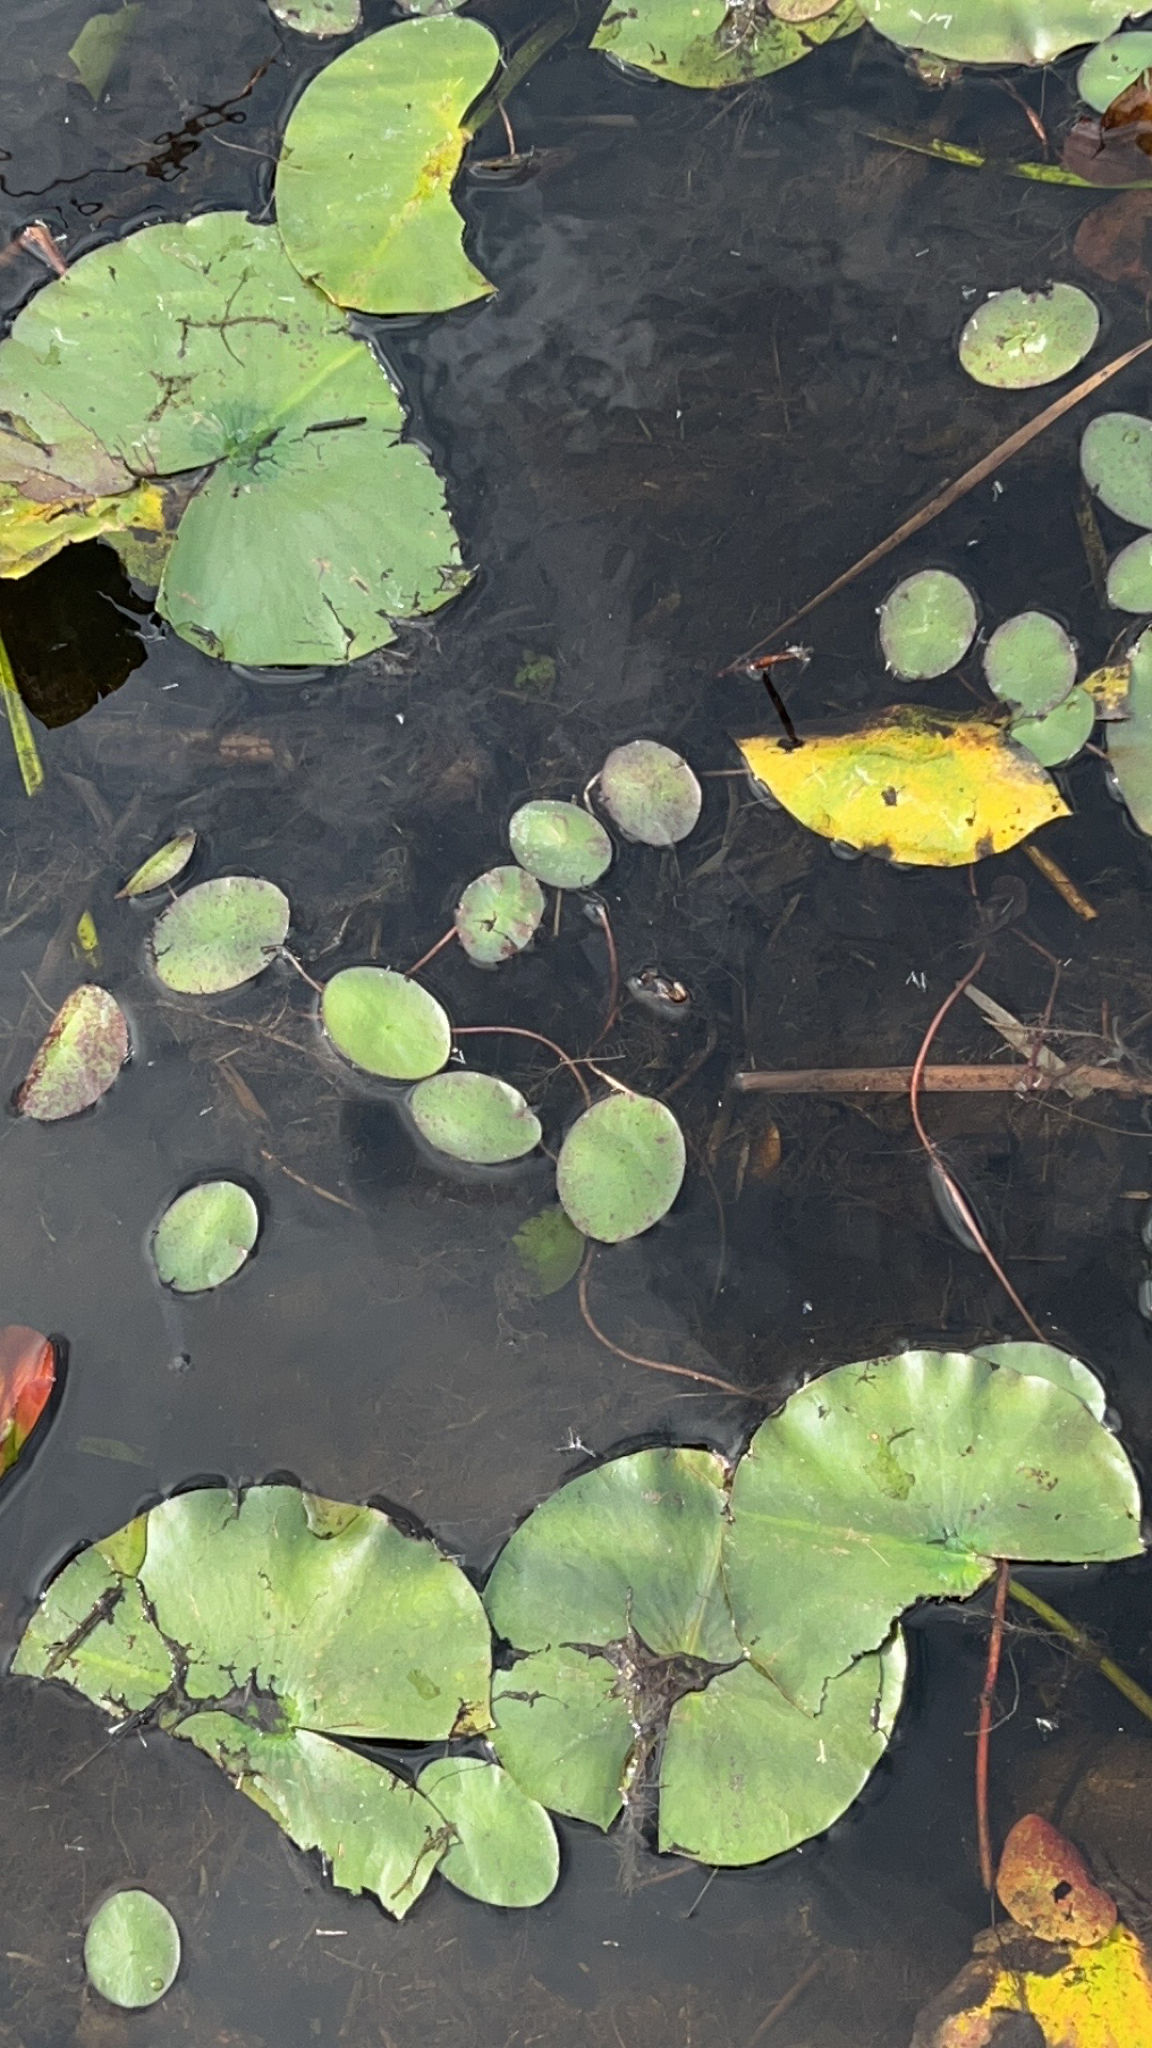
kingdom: Plantae
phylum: Tracheophyta
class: Magnoliopsida
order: Nymphaeales
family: Cabombaceae
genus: Brasenia
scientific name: Brasenia schreberi
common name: Water-shield
